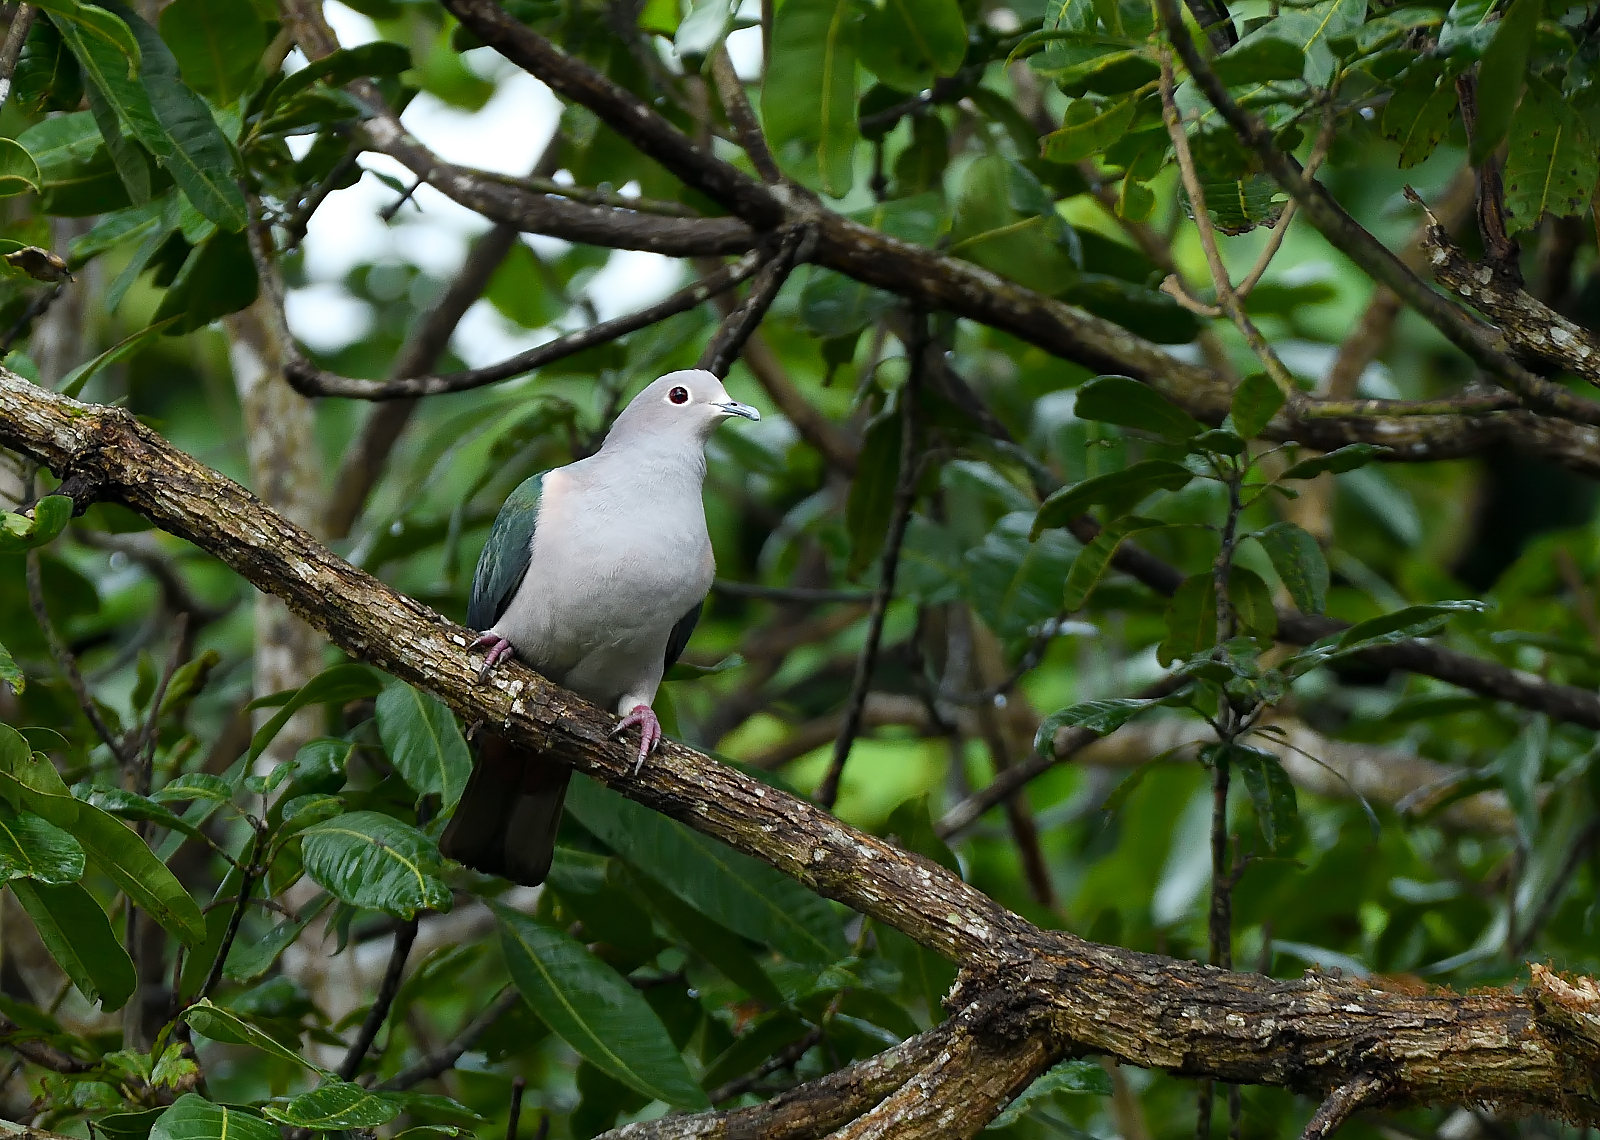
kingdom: Animalia
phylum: Chordata
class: Aves
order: Columbiformes
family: Columbidae
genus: Ducula
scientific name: Ducula aenea
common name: Green imperial pigeon
